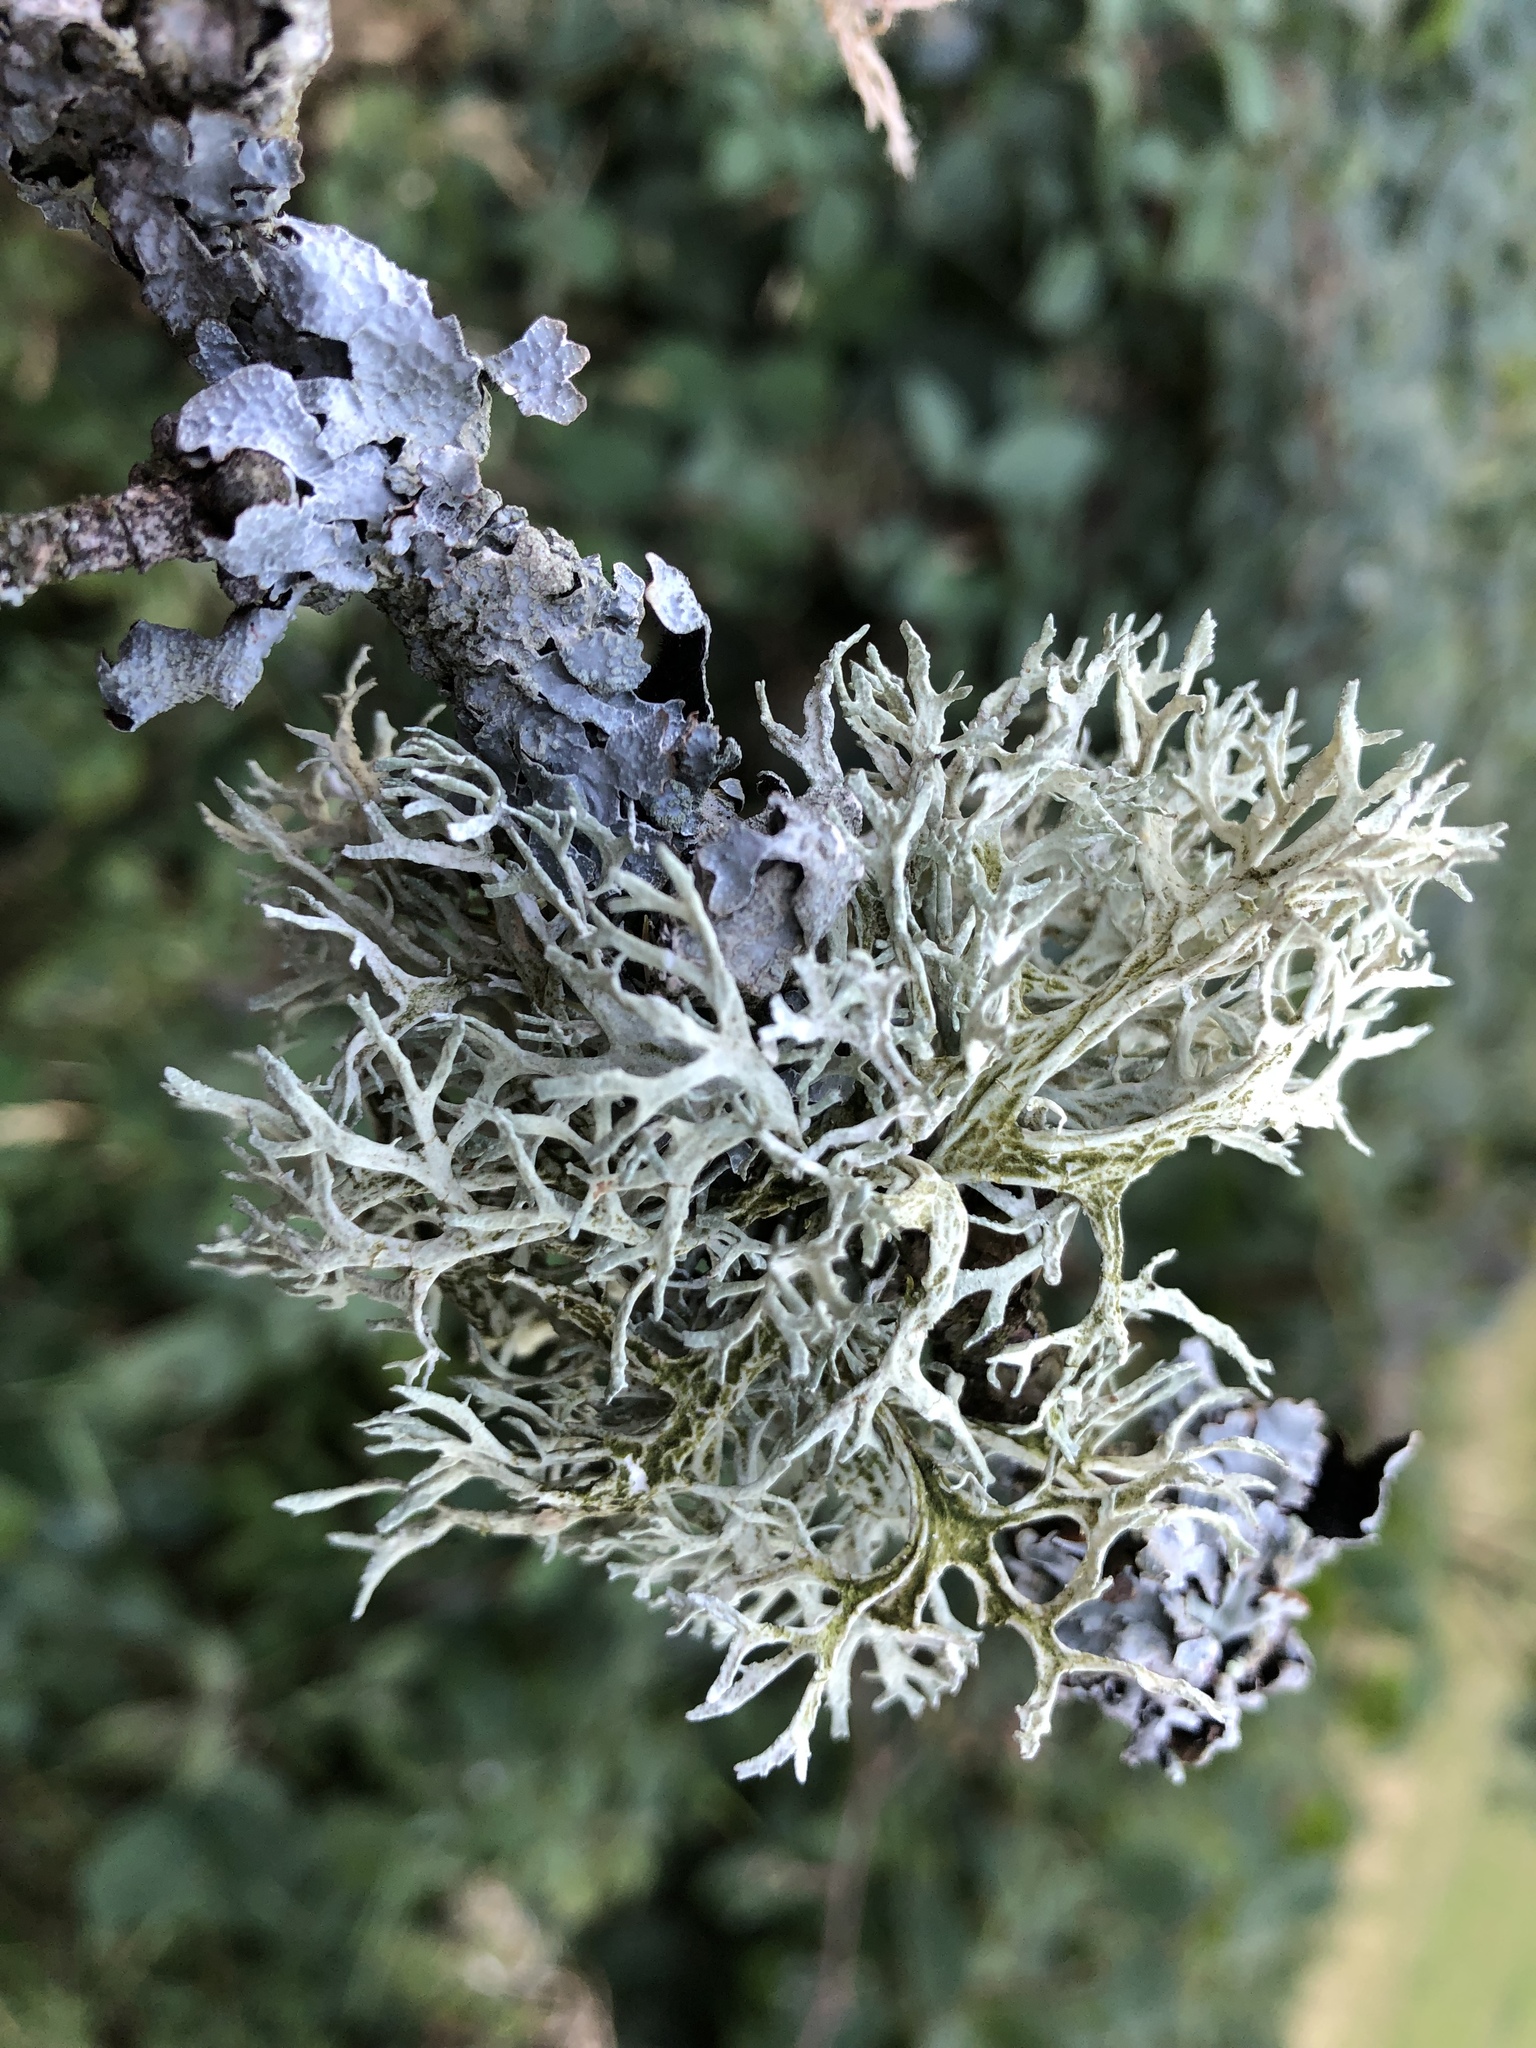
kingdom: Fungi
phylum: Ascomycota
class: Lecanoromycetes
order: Lecanorales
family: Parmeliaceae
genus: Evernia
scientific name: Evernia prunastri
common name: Oak moss
